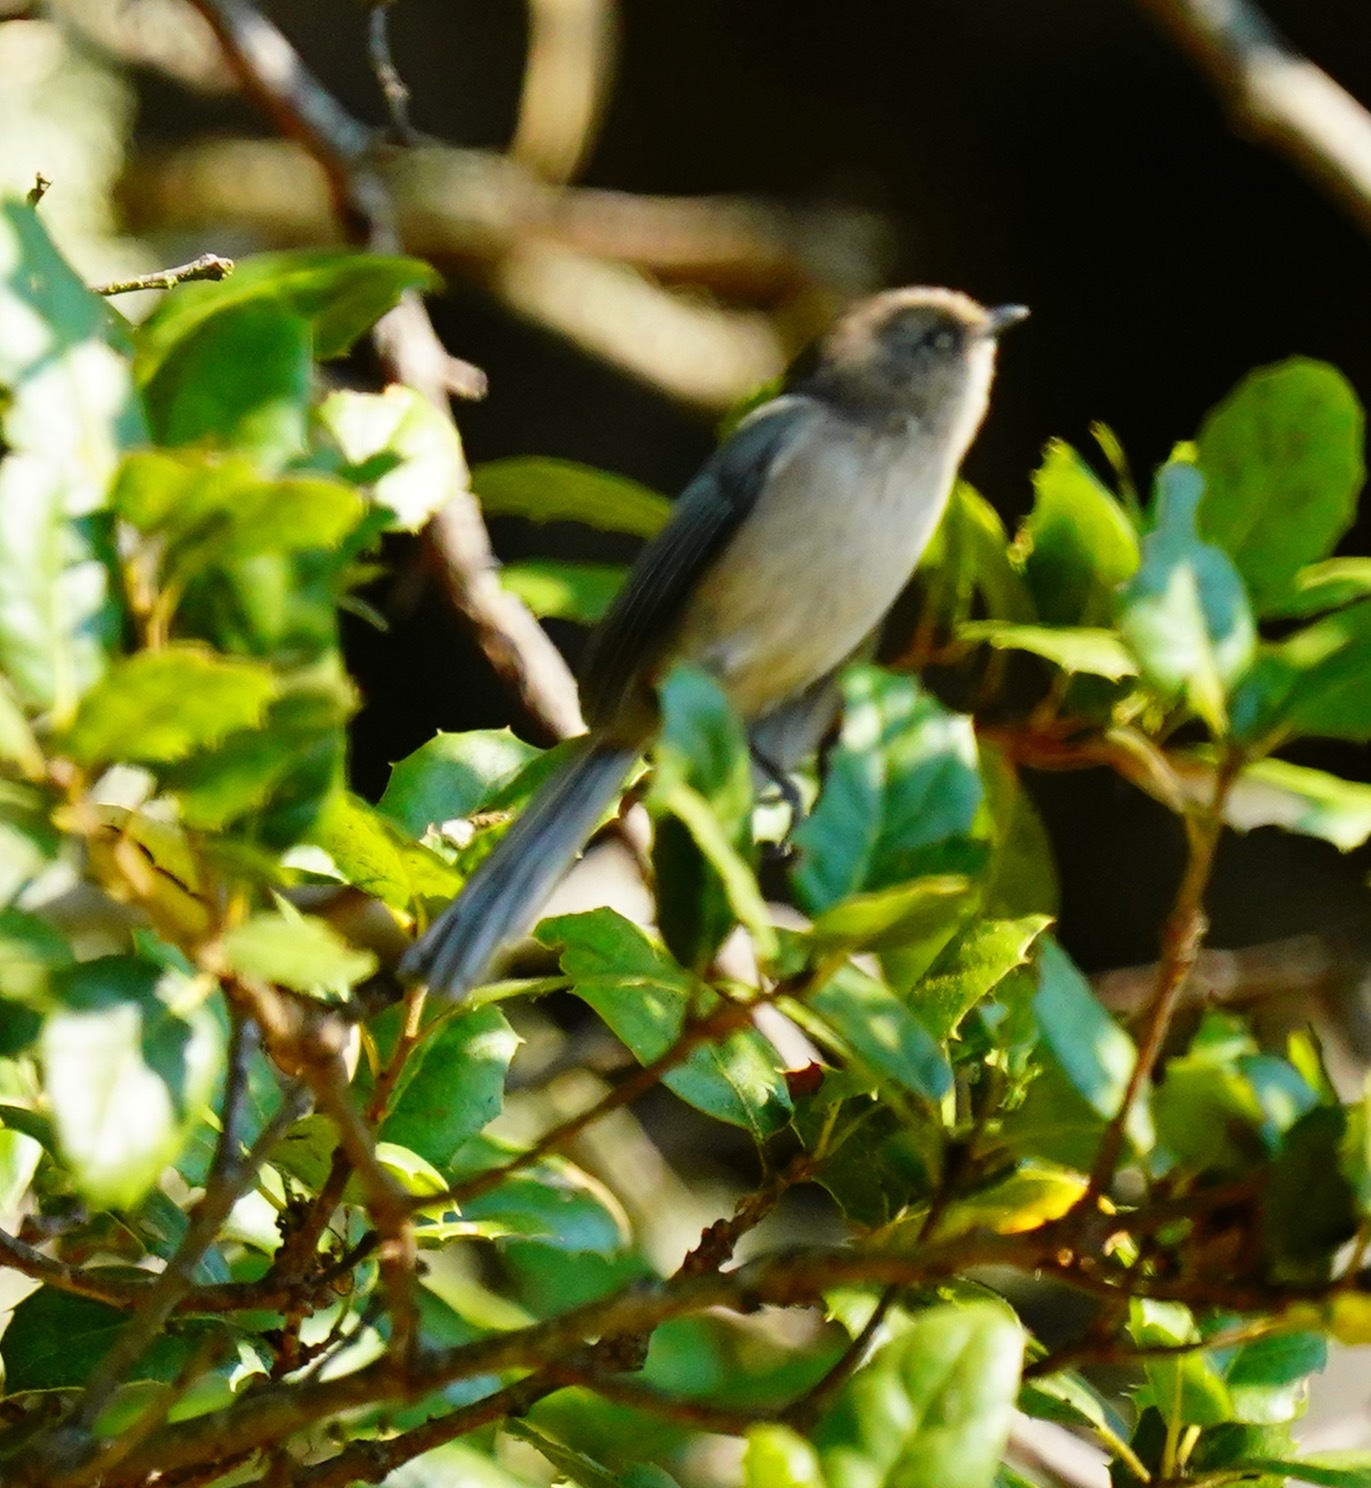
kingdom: Animalia
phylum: Chordata
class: Aves
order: Passeriformes
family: Aegithalidae
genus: Psaltriparus
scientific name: Psaltriparus minimus
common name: American bushtit
